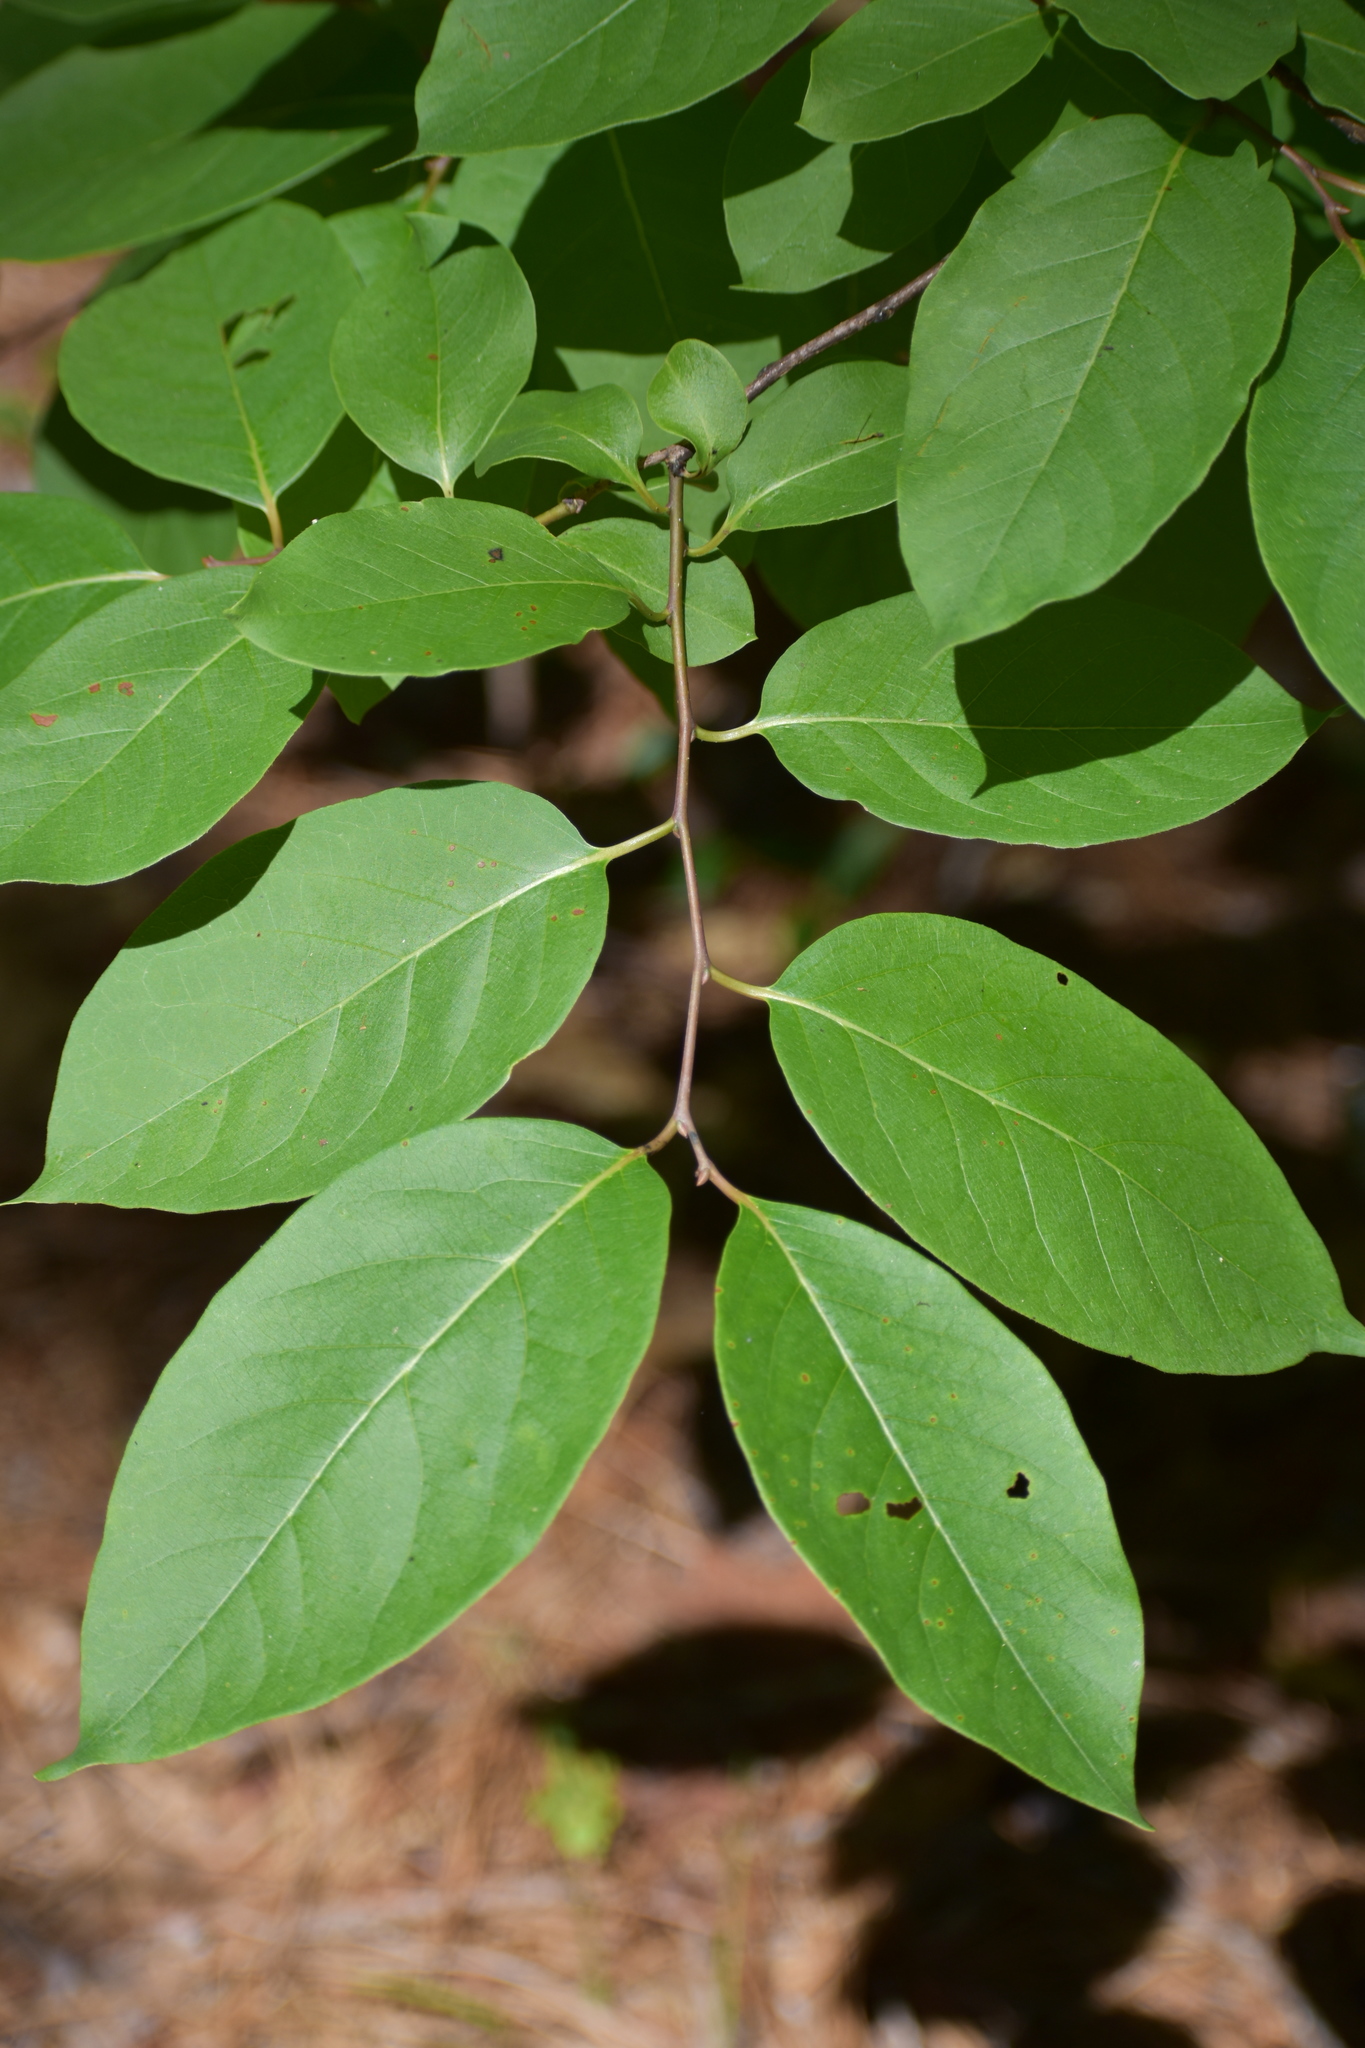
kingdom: Plantae
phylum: Tracheophyta
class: Magnoliopsida
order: Ericales
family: Ebenaceae
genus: Diospyros
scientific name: Diospyros virginiana
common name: Persimmon
